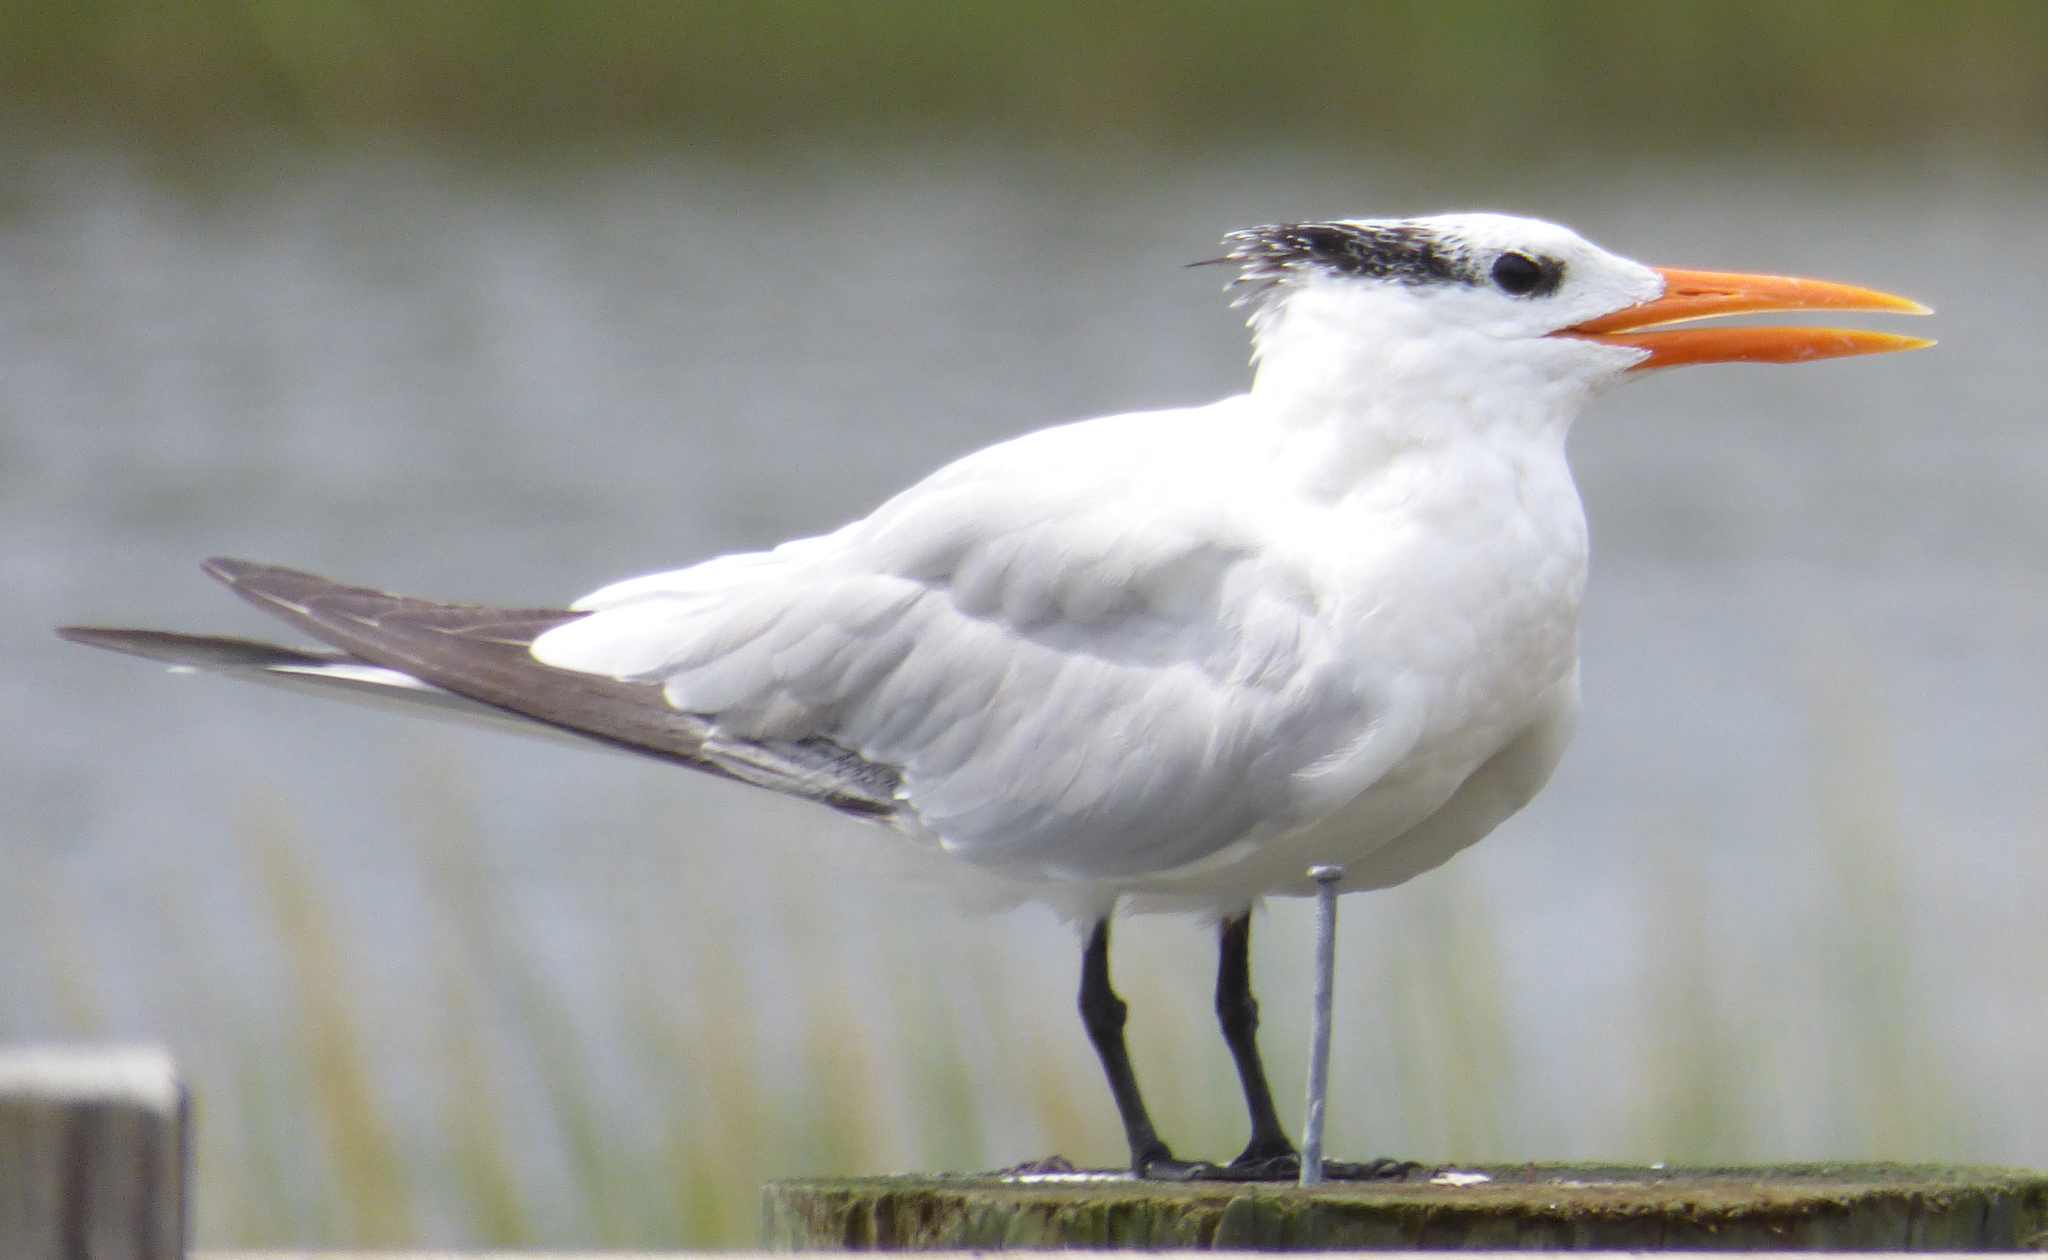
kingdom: Animalia
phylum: Chordata
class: Aves
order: Charadriiformes
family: Laridae
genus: Thalasseus
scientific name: Thalasseus maximus
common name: Royal tern
